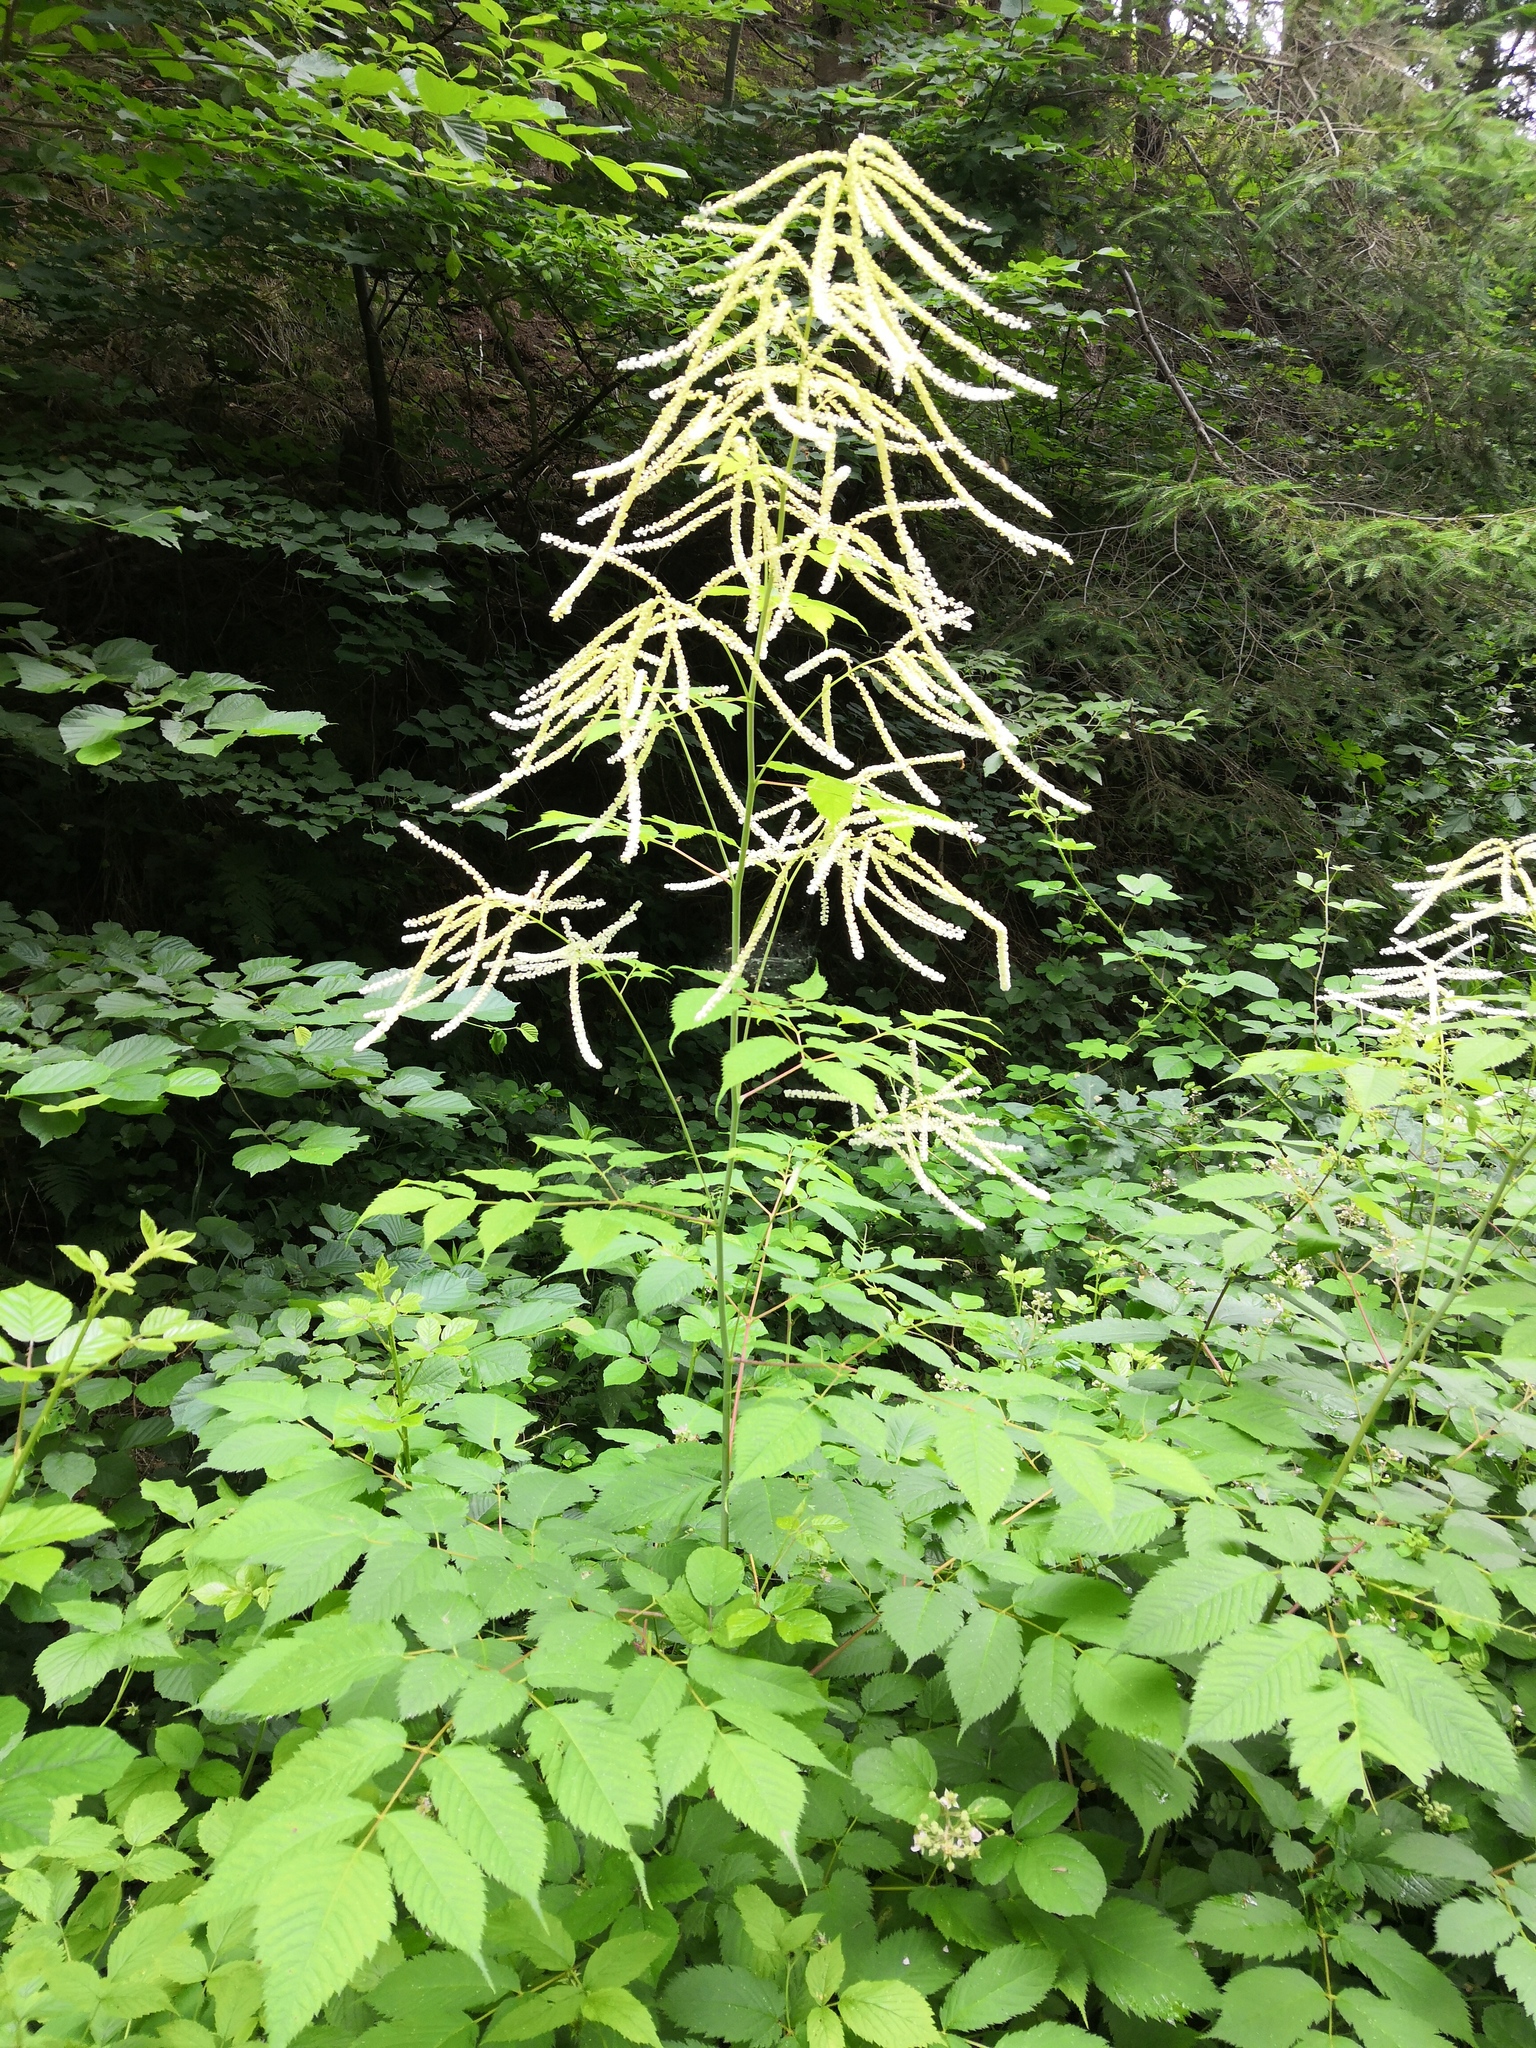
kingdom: Plantae
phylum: Tracheophyta
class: Magnoliopsida
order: Rosales
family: Rosaceae
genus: Aruncus
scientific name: Aruncus dioicus
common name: Buck's-beard
